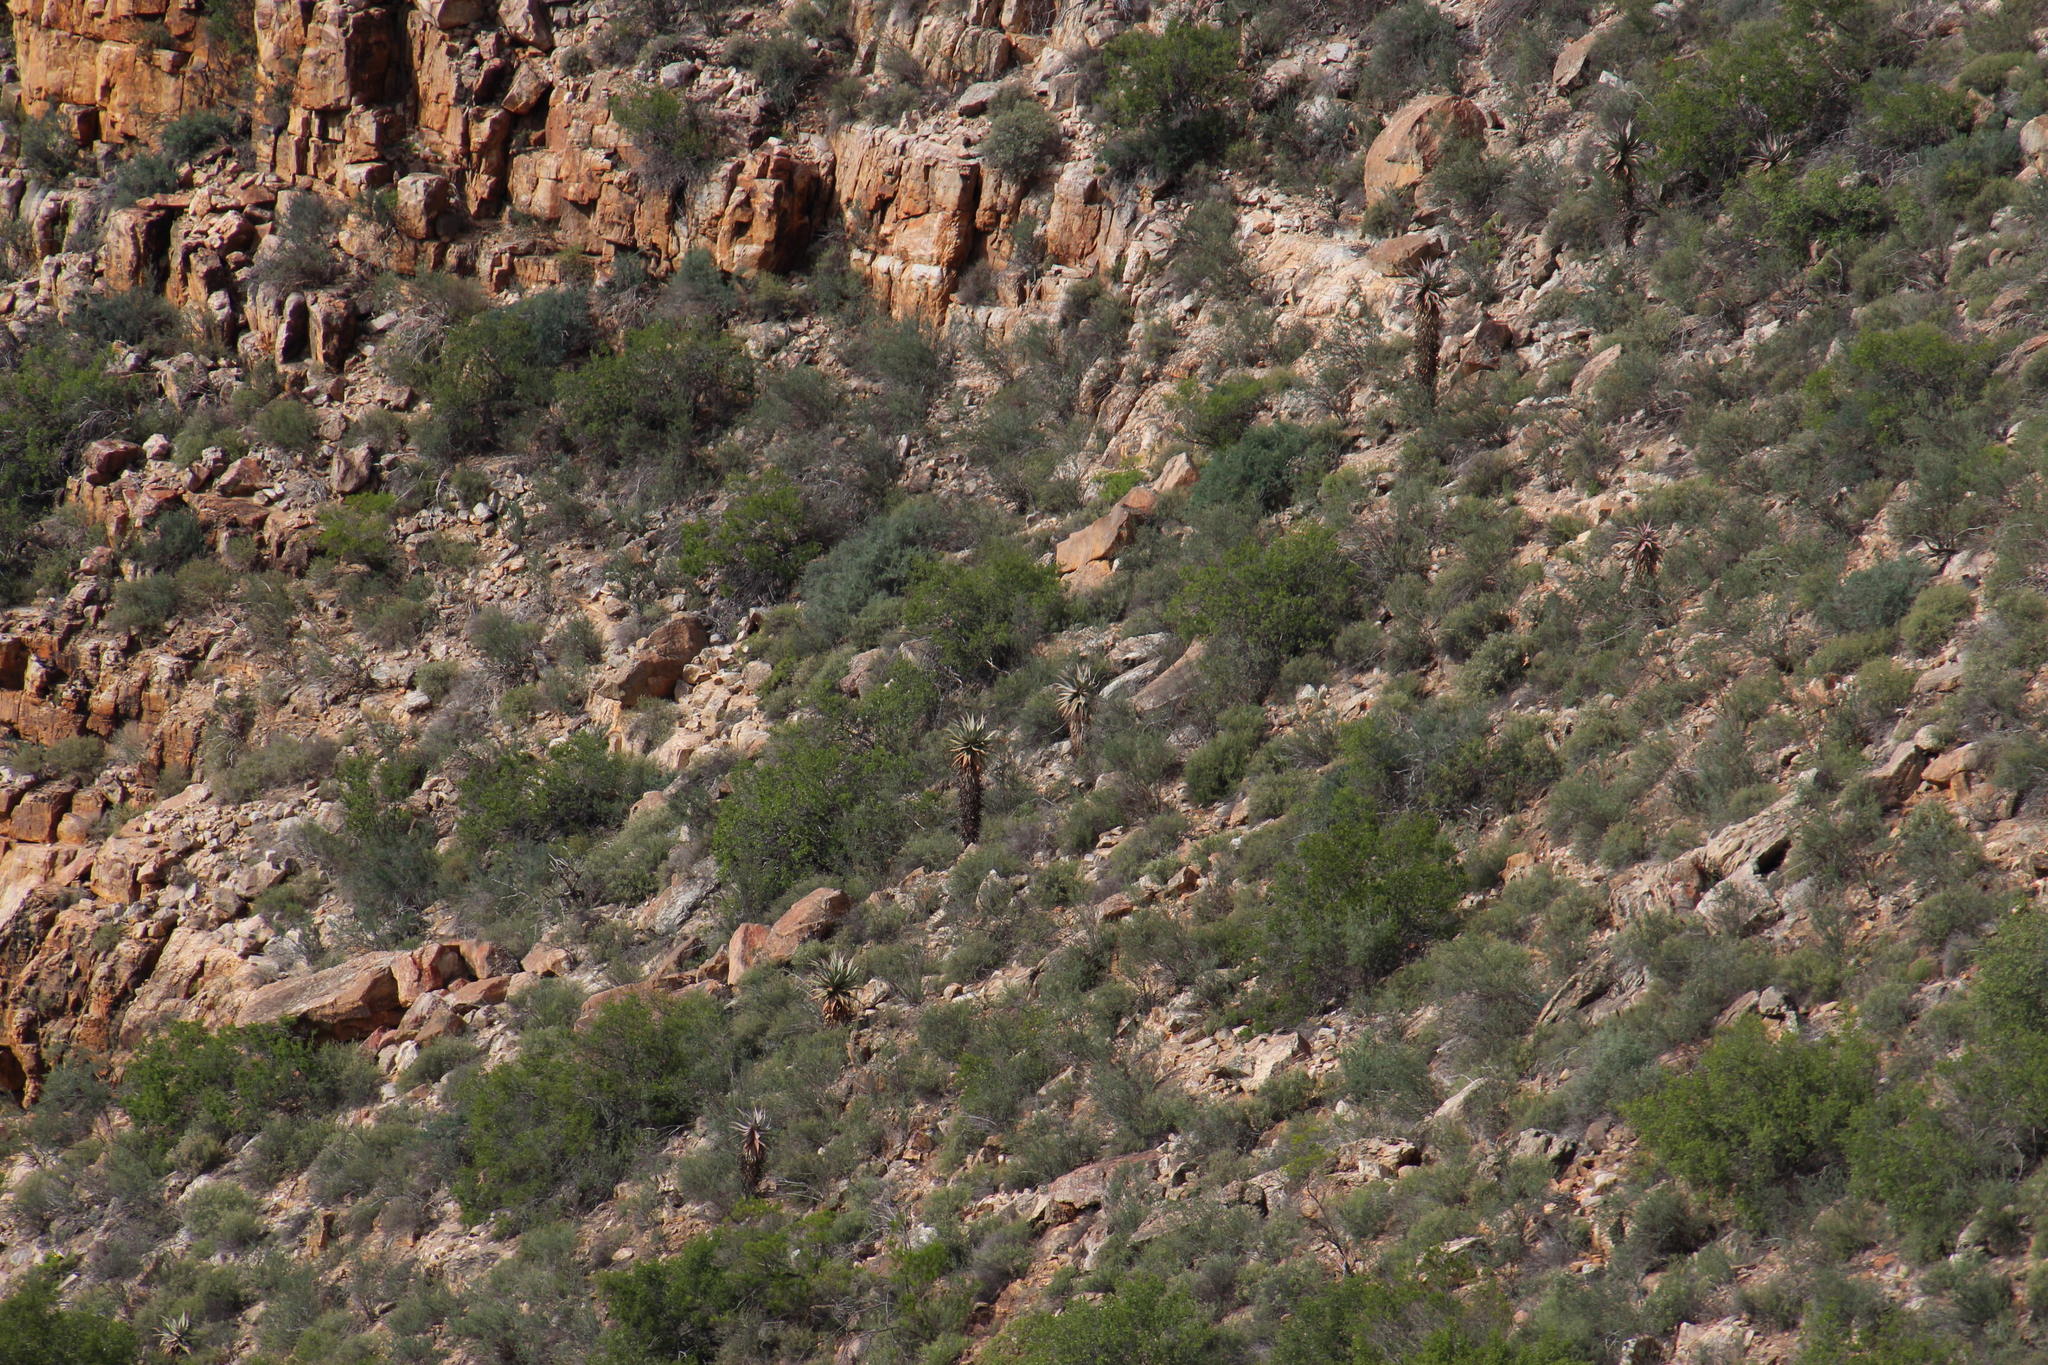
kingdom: Plantae
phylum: Tracheophyta
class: Liliopsida
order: Asparagales
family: Asphodelaceae
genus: Aloe
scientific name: Aloe comosa
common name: Clanwilliam aloe
